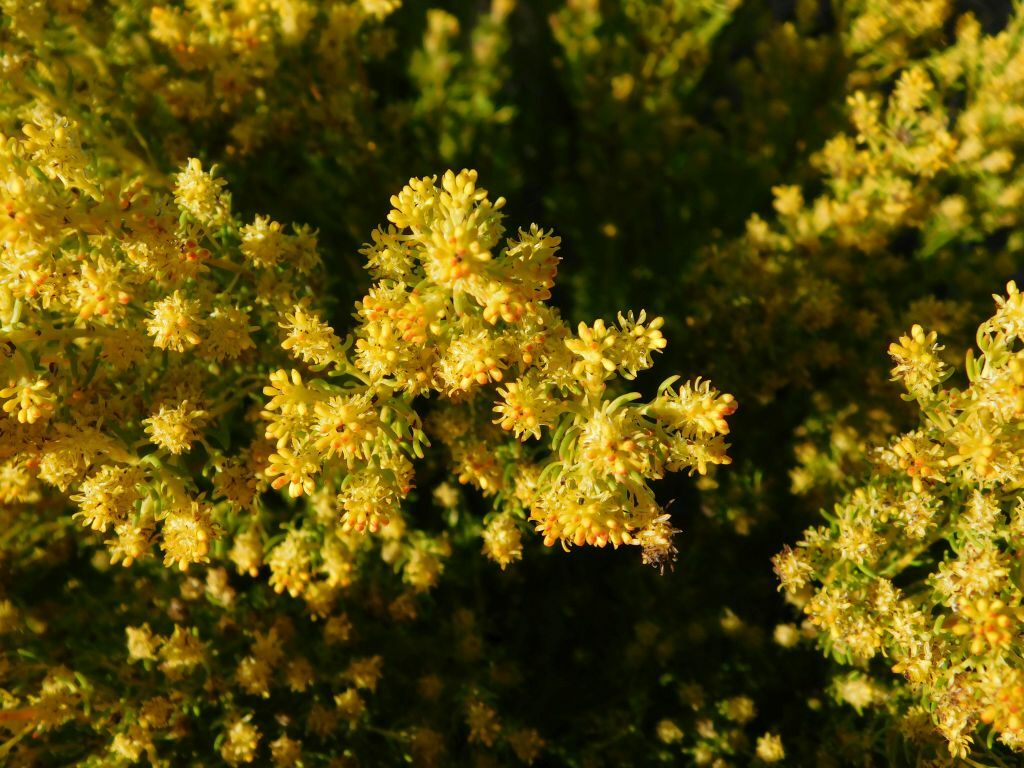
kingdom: Plantae
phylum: Tracheophyta
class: Magnoliopsida
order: Proteales
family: Proteaceae
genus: Leucadendron
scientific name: Leucadendron teretifolium
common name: Needle-leaf conebush
